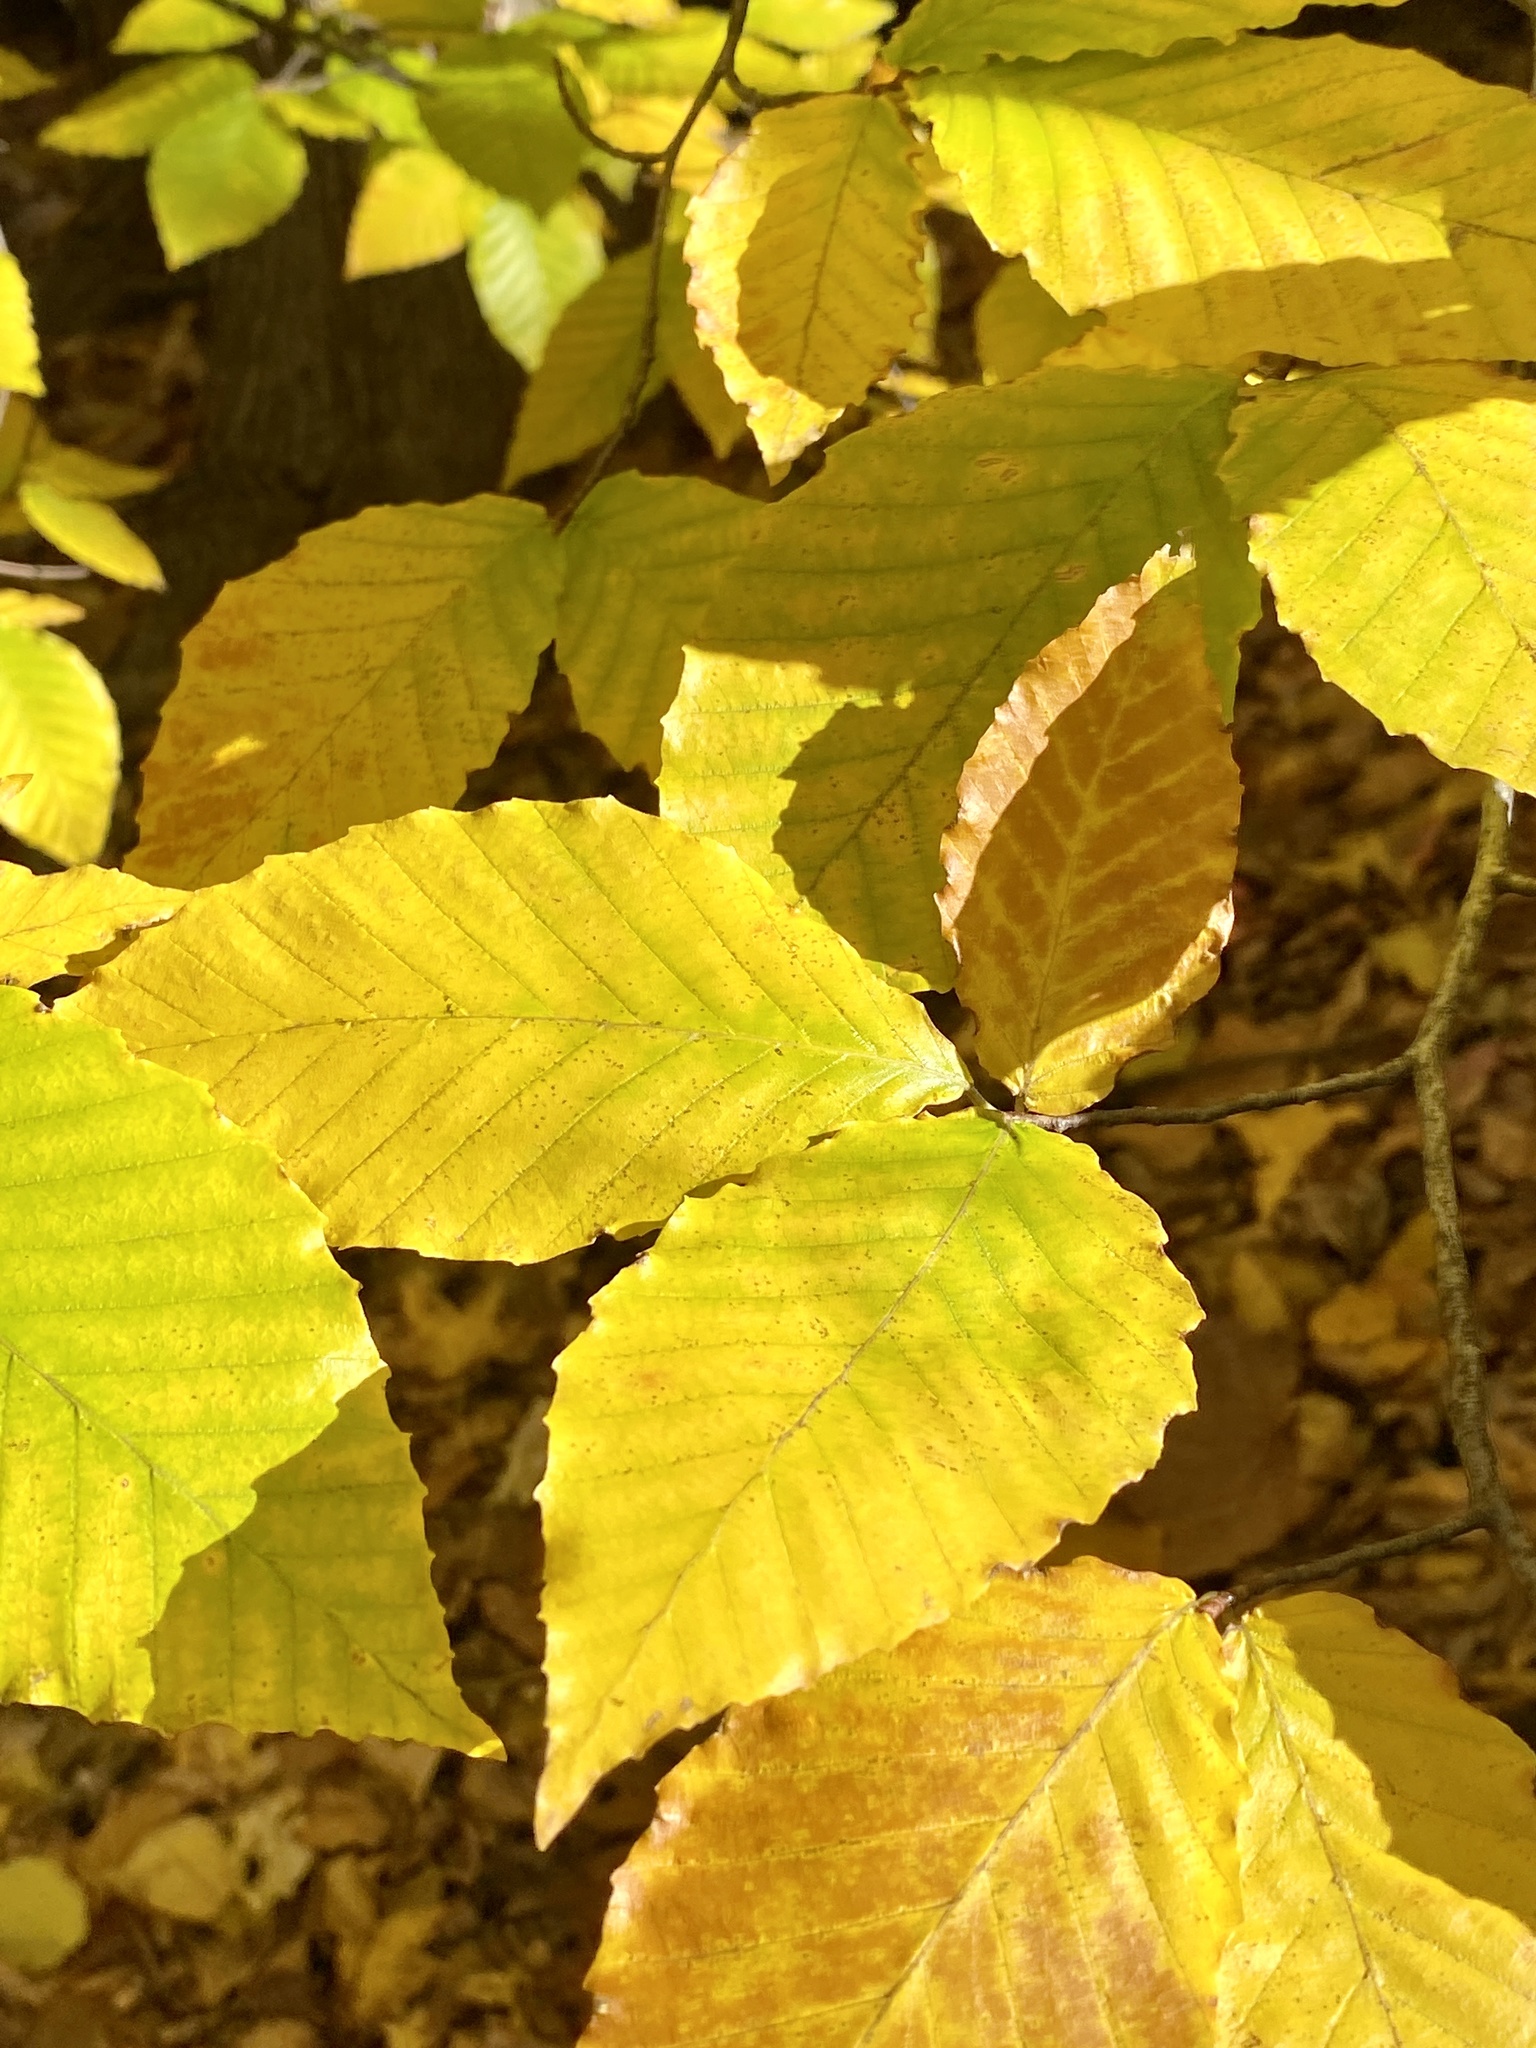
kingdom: Plantae
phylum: Tracheophyta
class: Magnoliopsida
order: Fagales
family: Fagaceae
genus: Fagus
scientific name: Fagus grandifolia
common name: American beech
